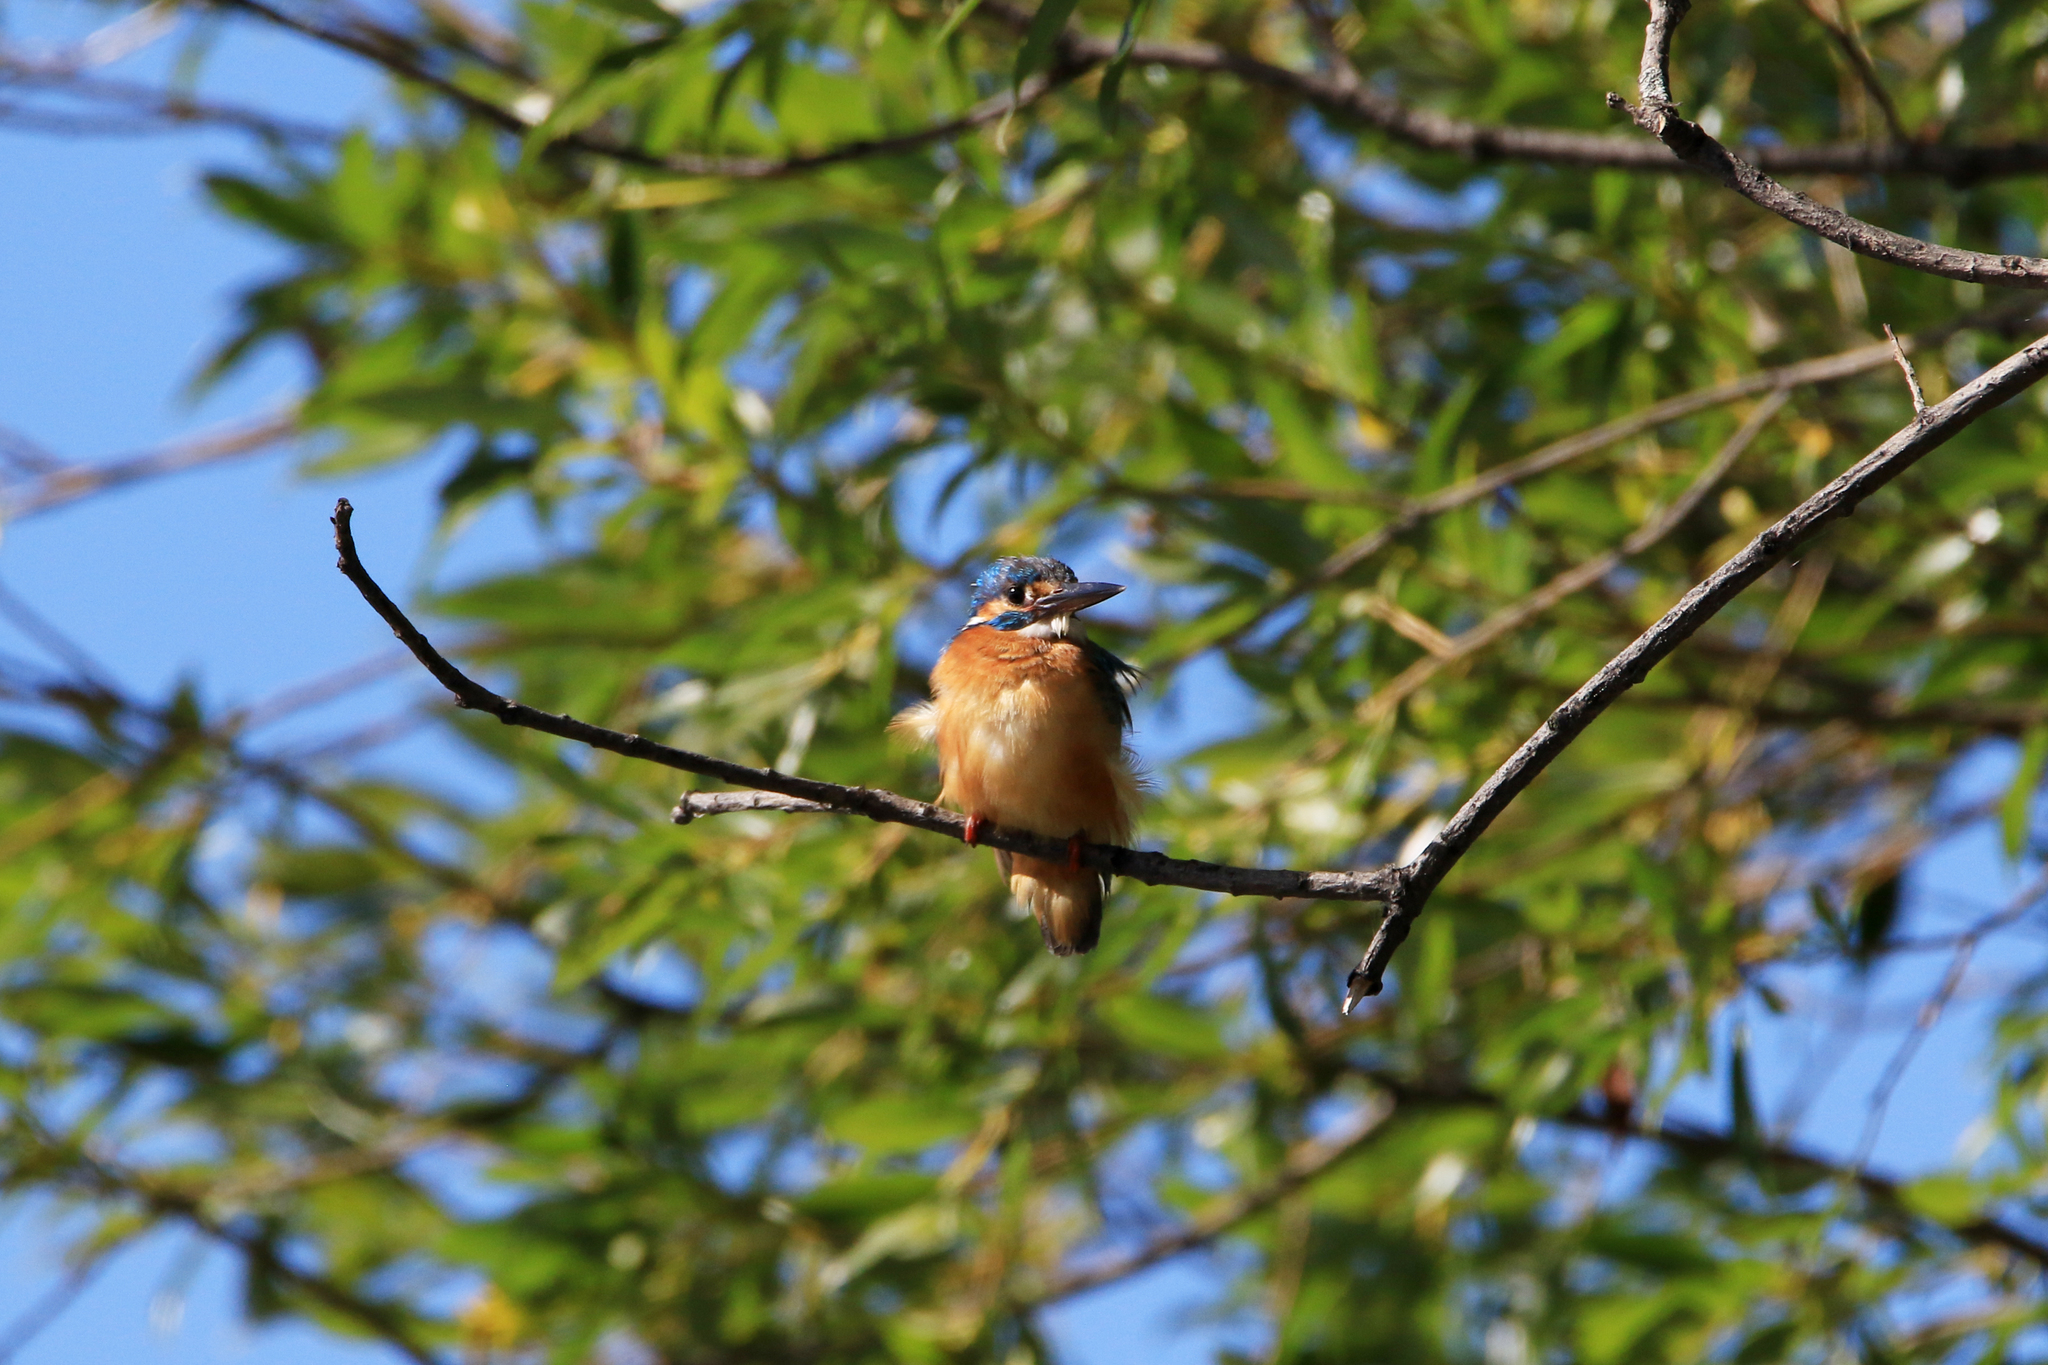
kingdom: Animalia
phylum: Chordata
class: Aves
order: Coraciiformes
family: Alcedinidae
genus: Alcedo
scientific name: Alcedo atthis
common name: Common kingfisher
